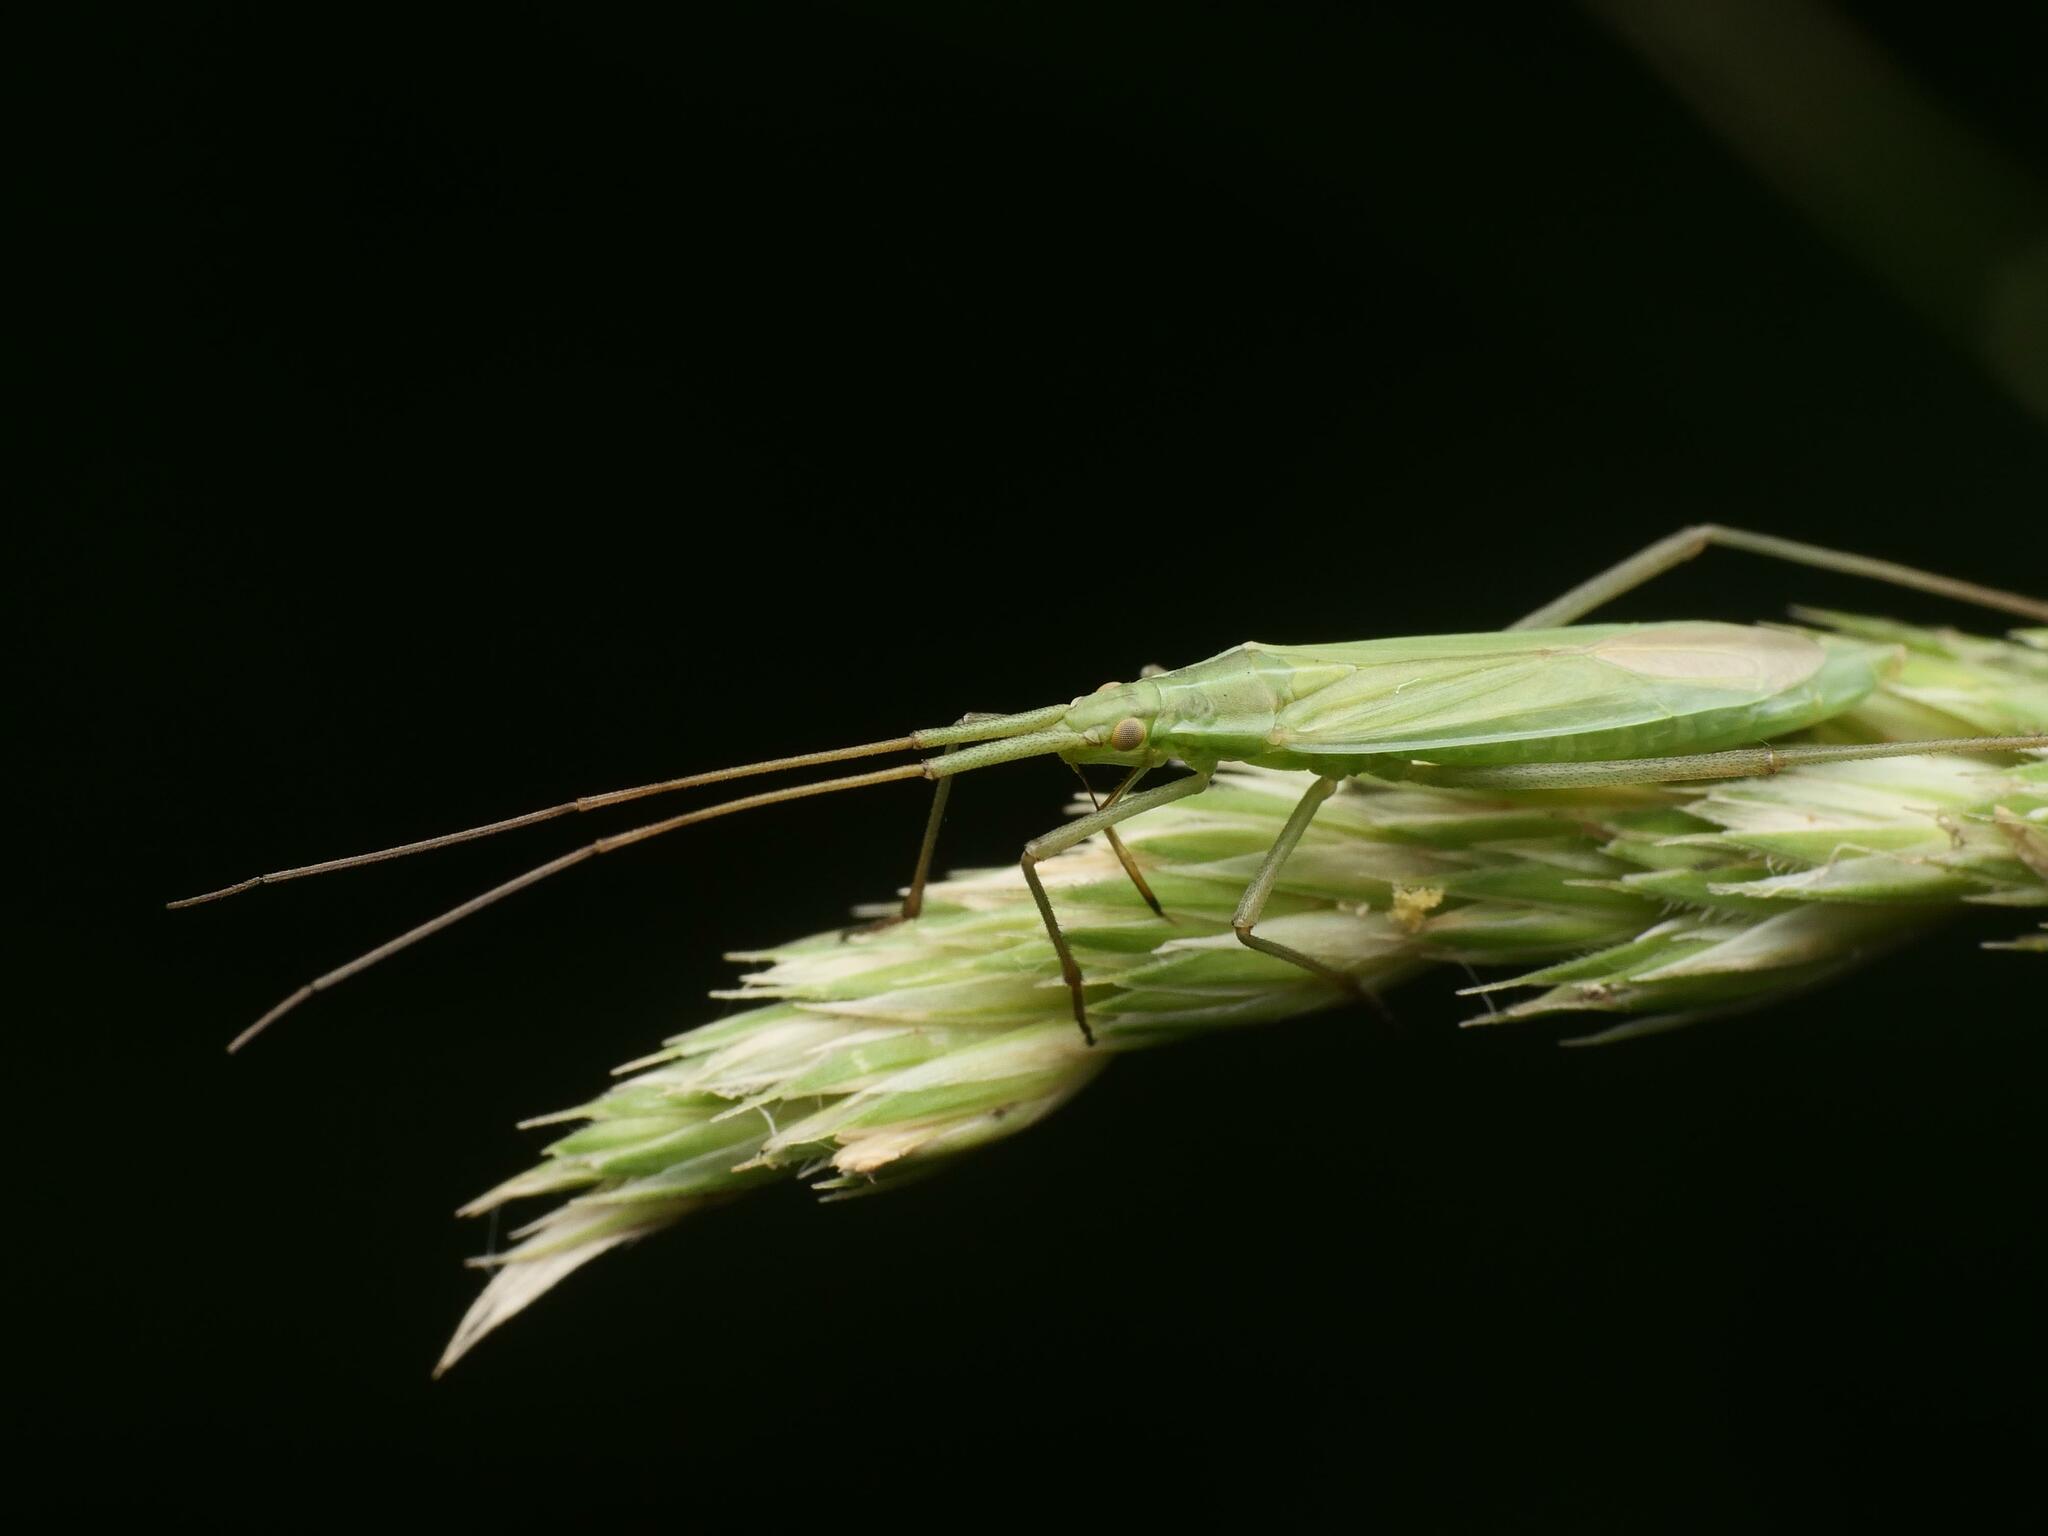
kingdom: Animalia
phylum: Arthropoda
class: Insecta
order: Hemiptera
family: Miridae
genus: Megaloceroea
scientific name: Megaloceroea recticornis
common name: Plant bug
